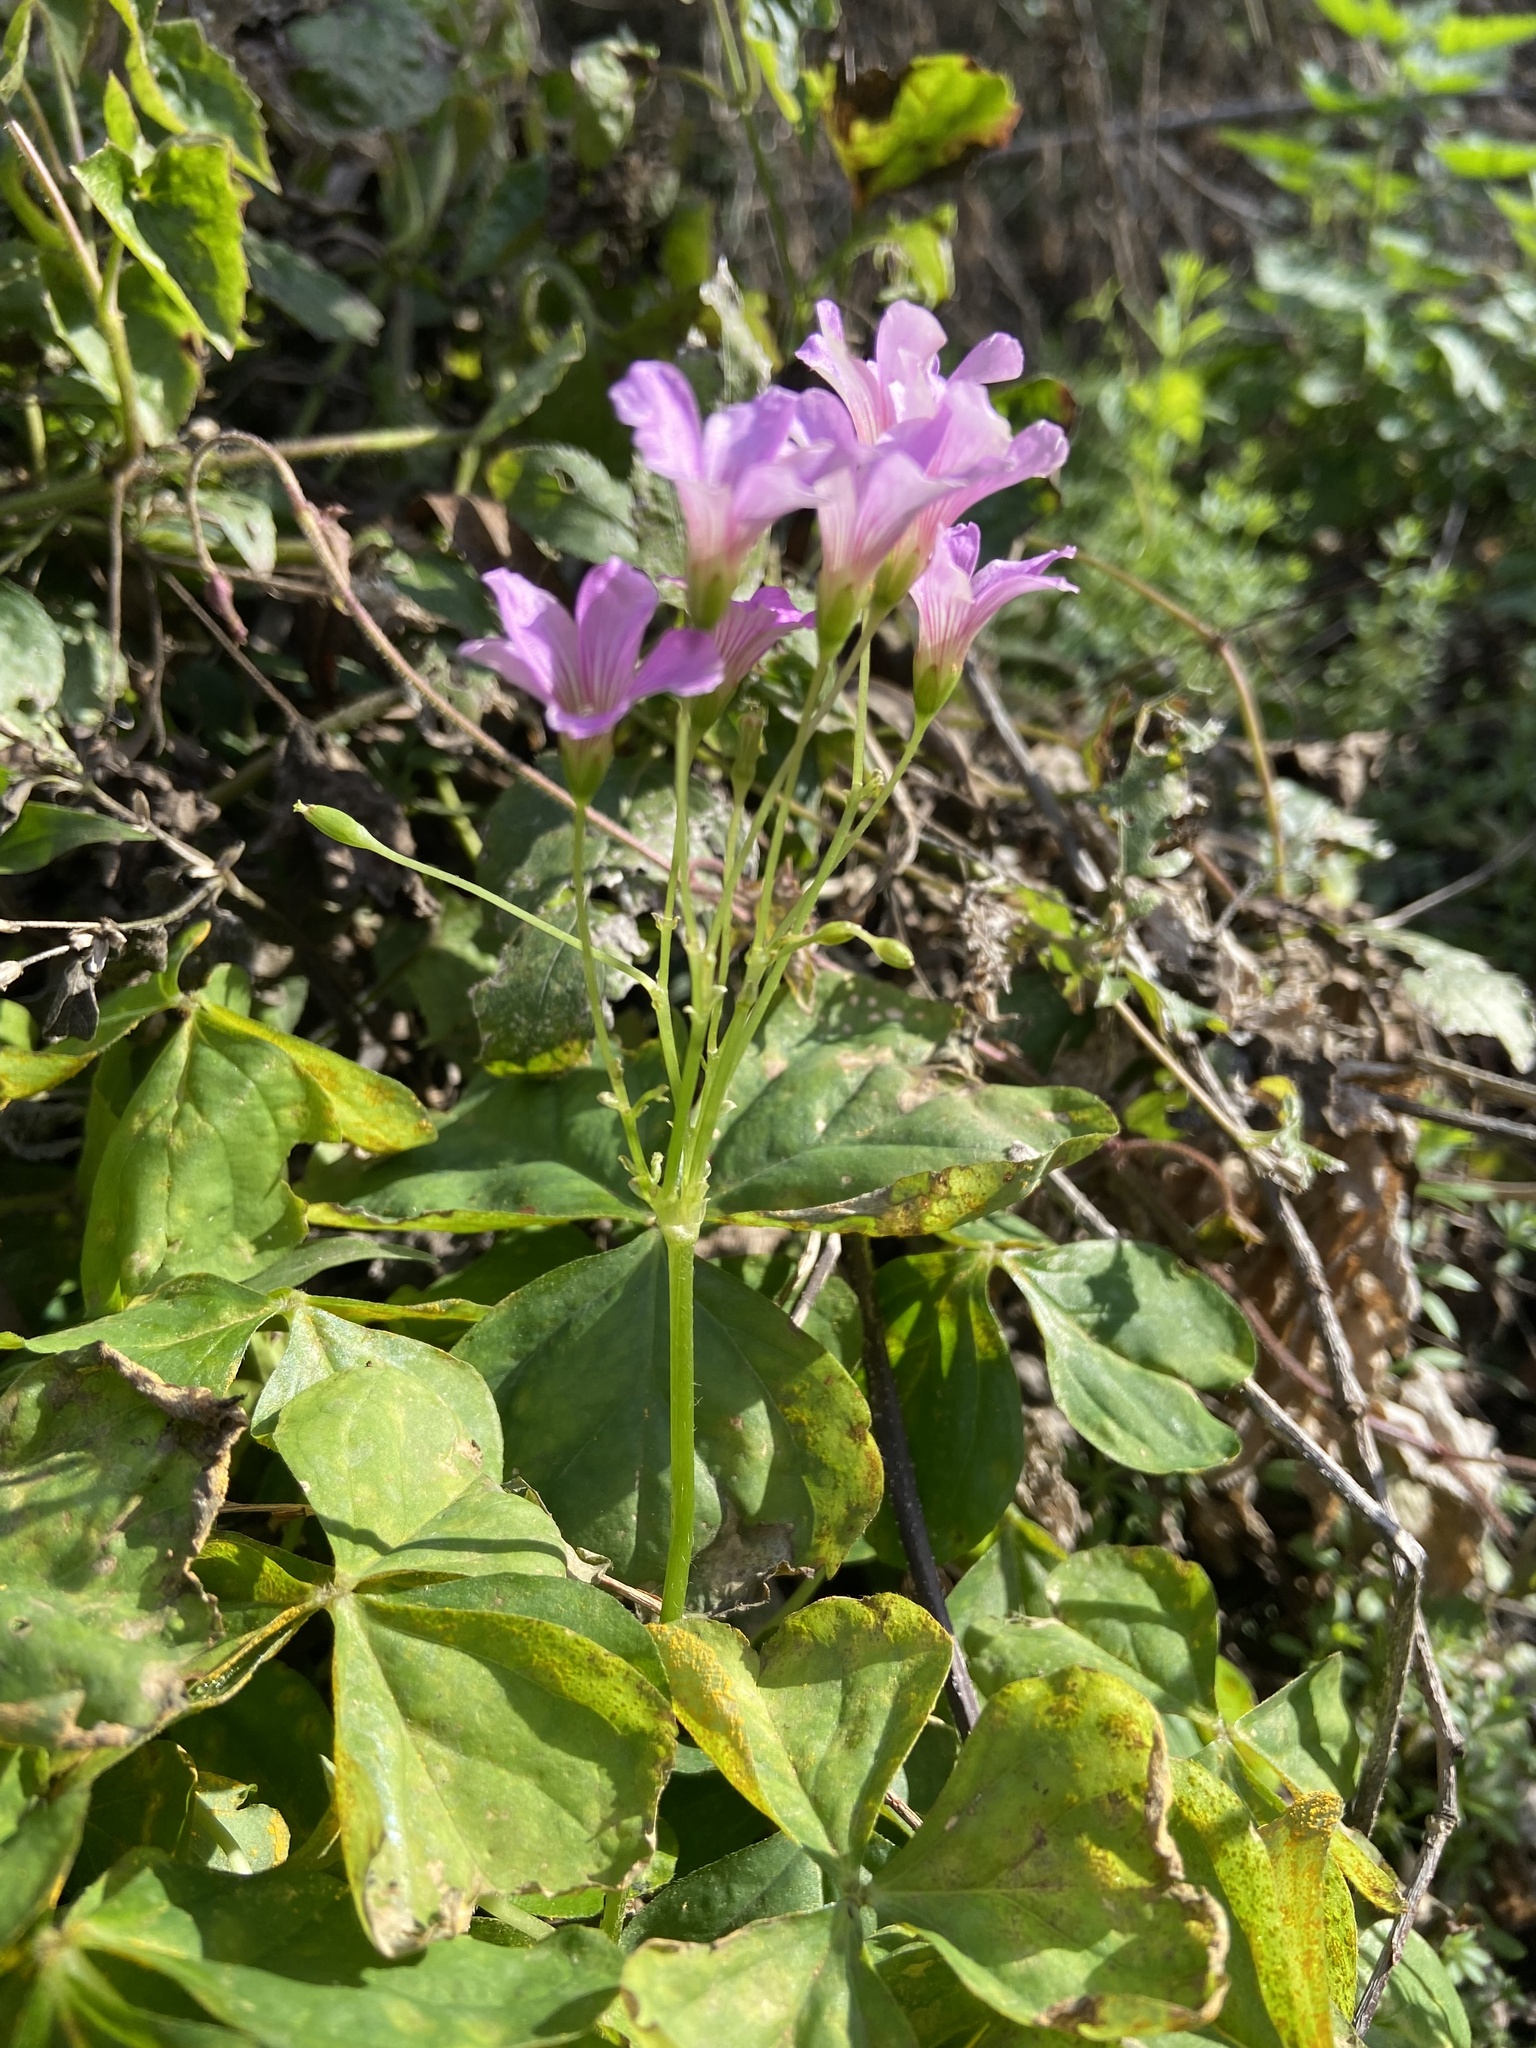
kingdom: Plantae
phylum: Tracheophyta
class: Magnoliopsida
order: Oxalidales
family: Oxalidaceae
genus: Oxalis
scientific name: Oxalis debilis
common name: Large-flowered pink-sorrel
